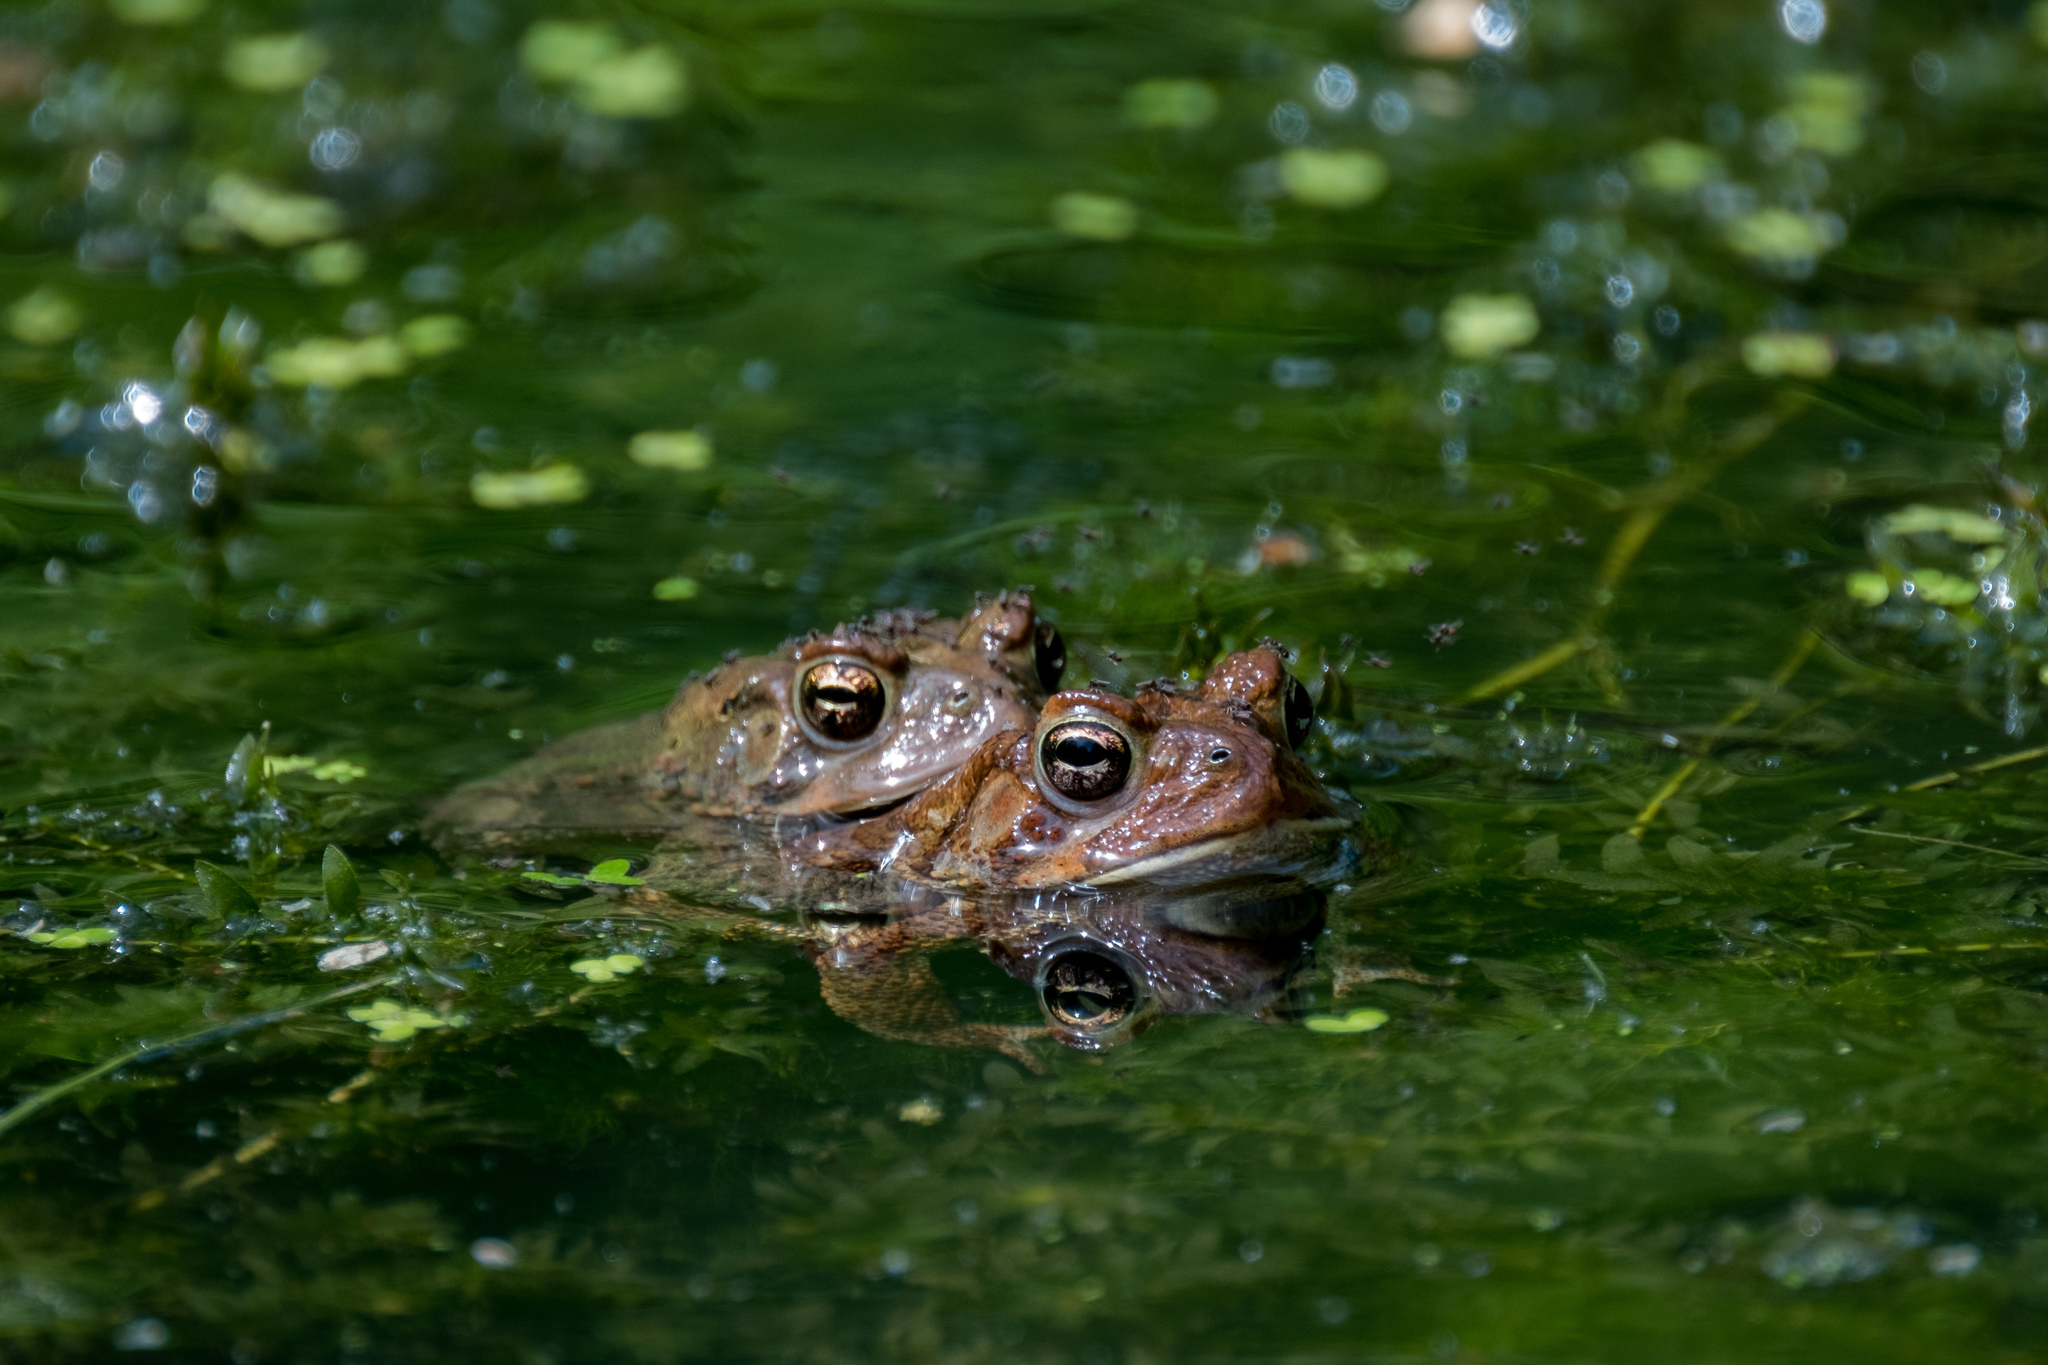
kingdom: Animalia
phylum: Chordata
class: Amphibia
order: Anura
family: Bufonidae
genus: Anaxyrus
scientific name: Anaxyrus americanus
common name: American toad
